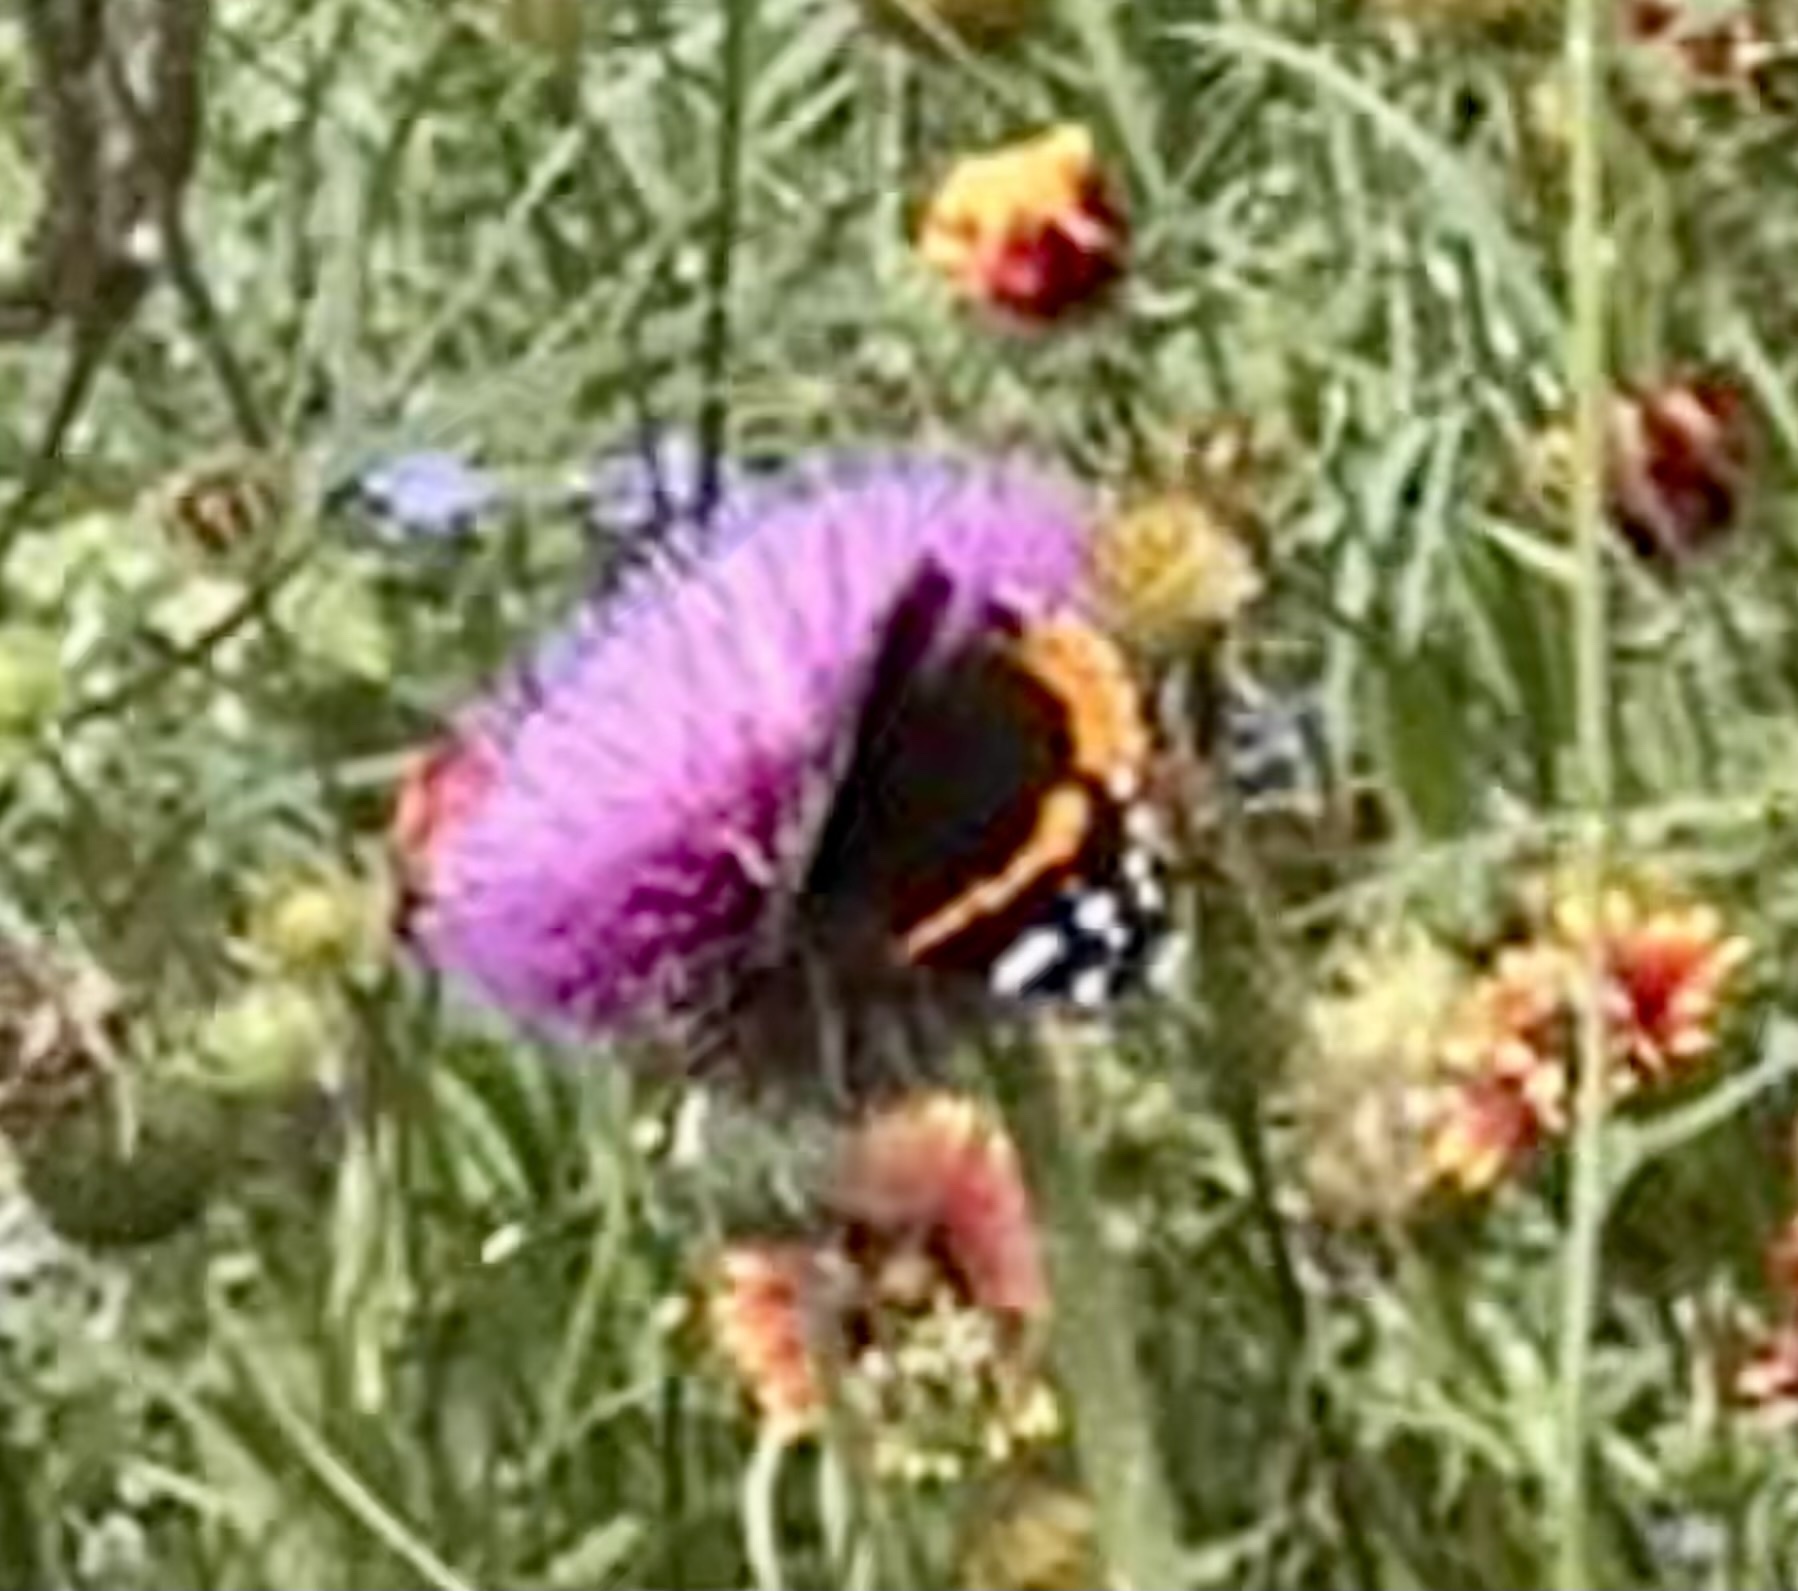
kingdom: Animalia
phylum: Arthropoda
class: Insecta
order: Lepidoptera
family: Nymphalidae
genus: Vanessa
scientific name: Vanessa atalanta
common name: Red admiral
